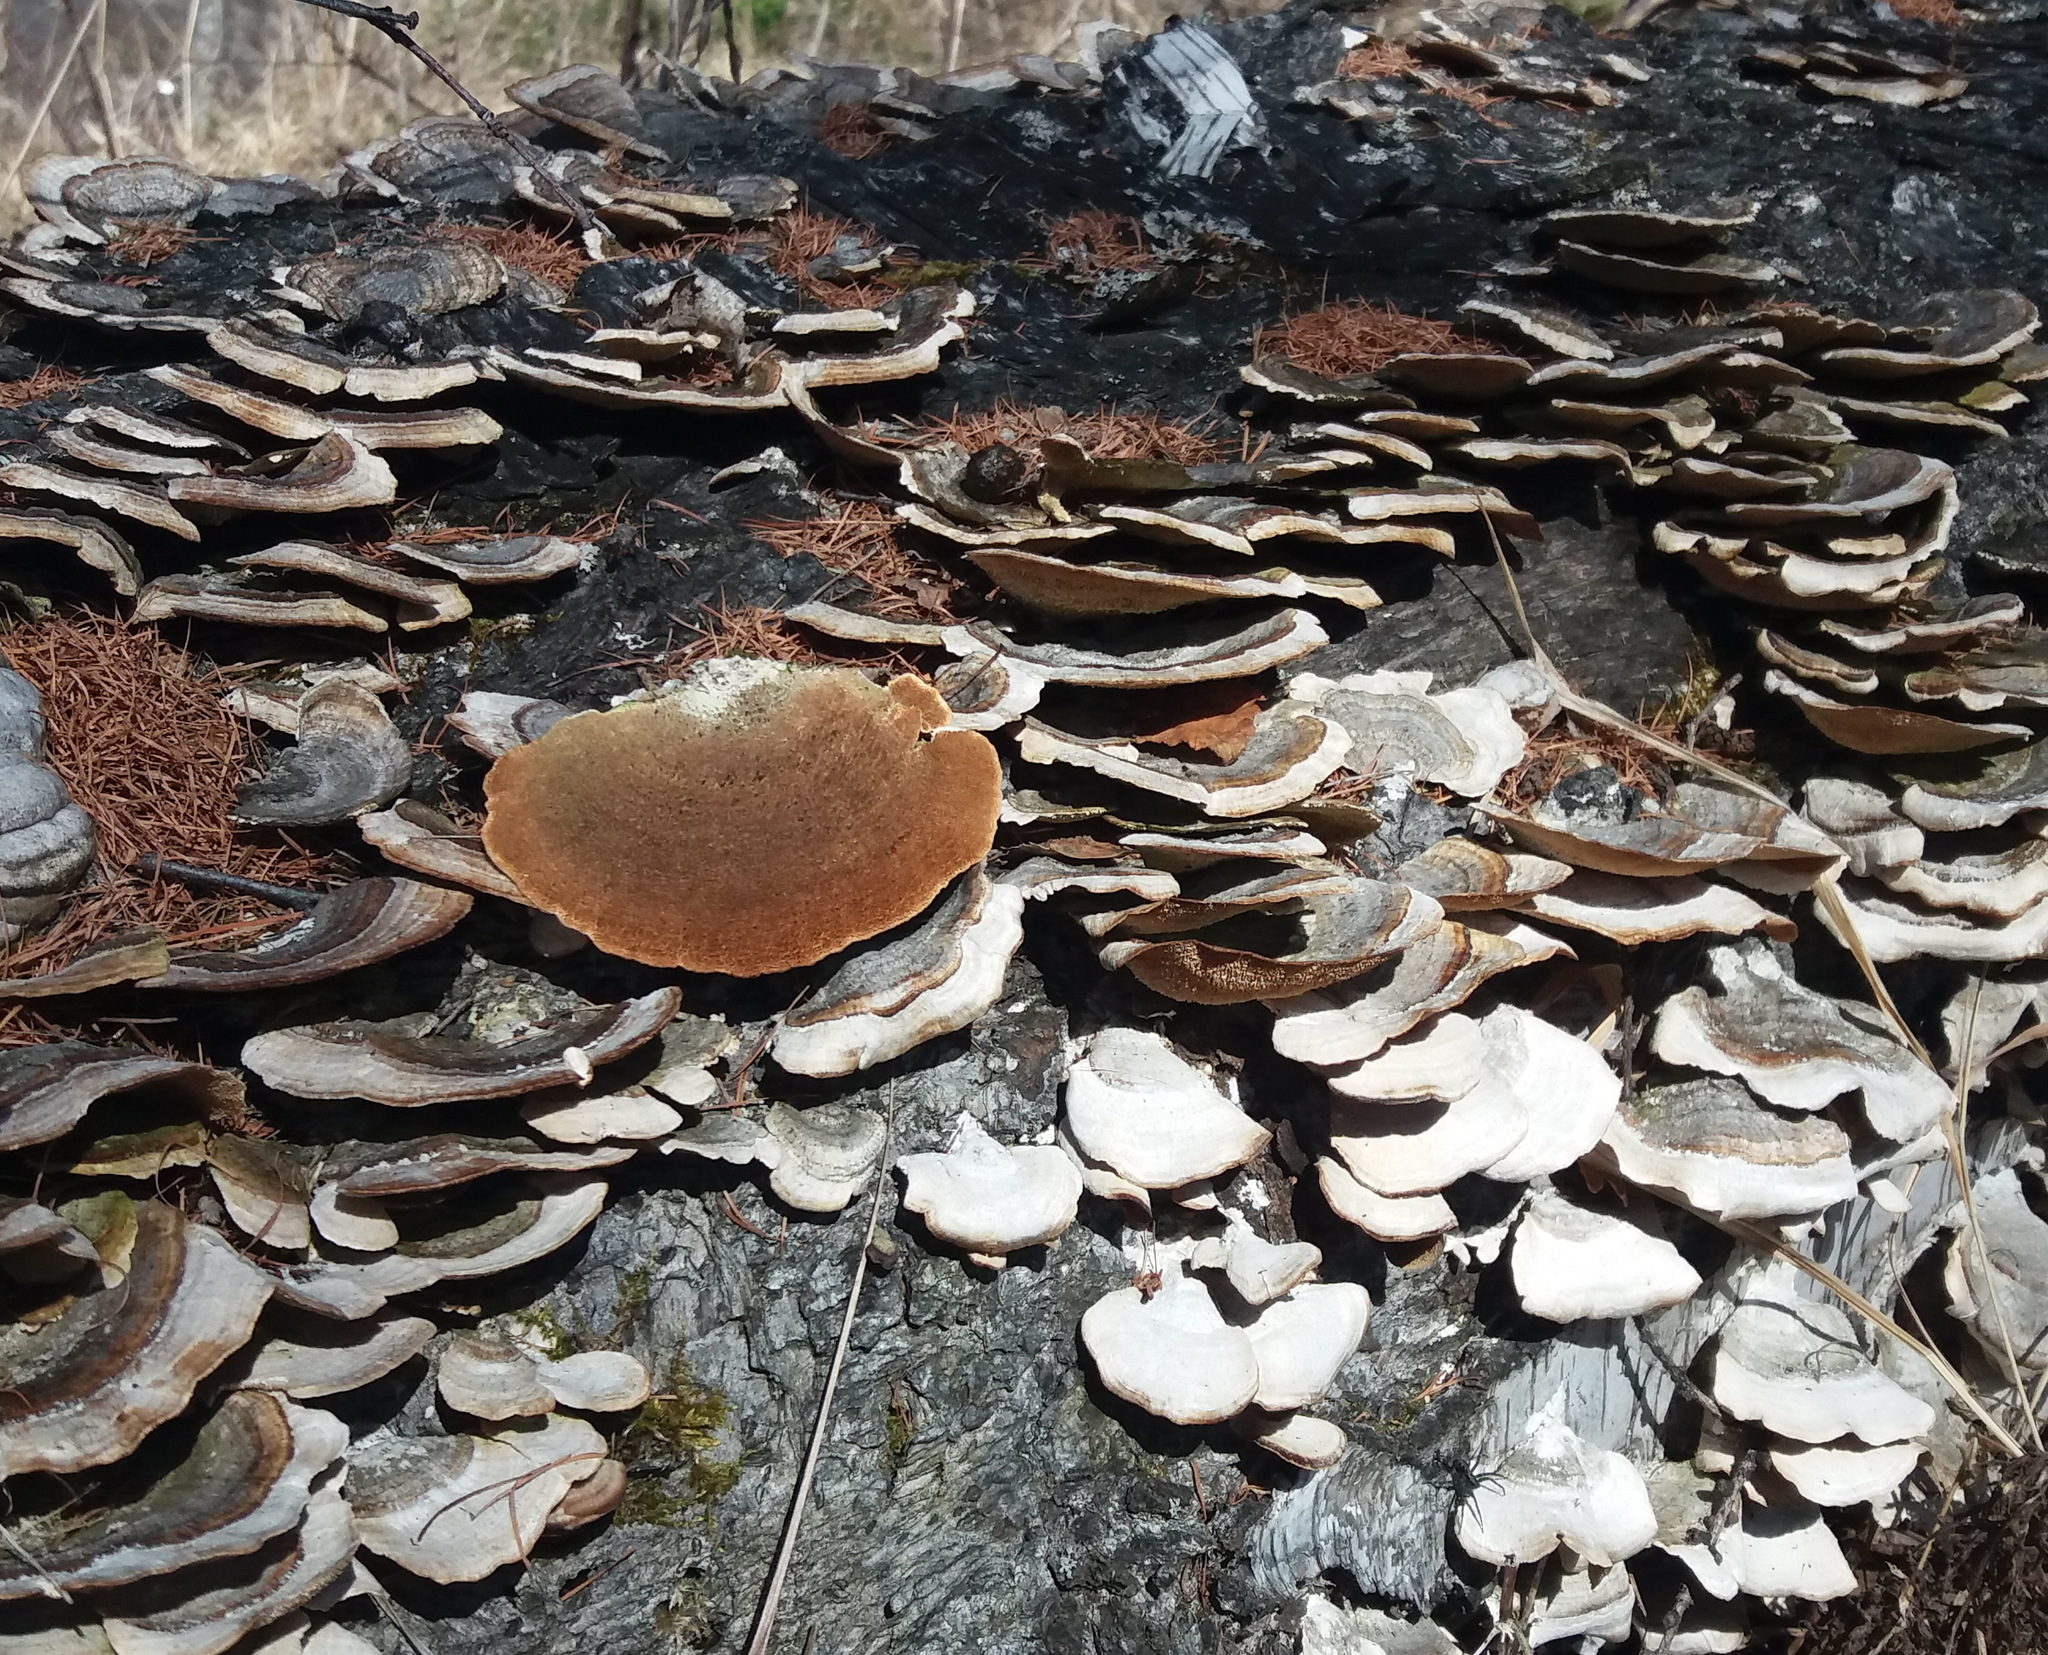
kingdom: Fungi
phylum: Basidiomycota
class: Agaricomycetes
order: Hymenochaetales
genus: Trichaptum
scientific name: Trichaptum biforme
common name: Violet-toothed polypore
